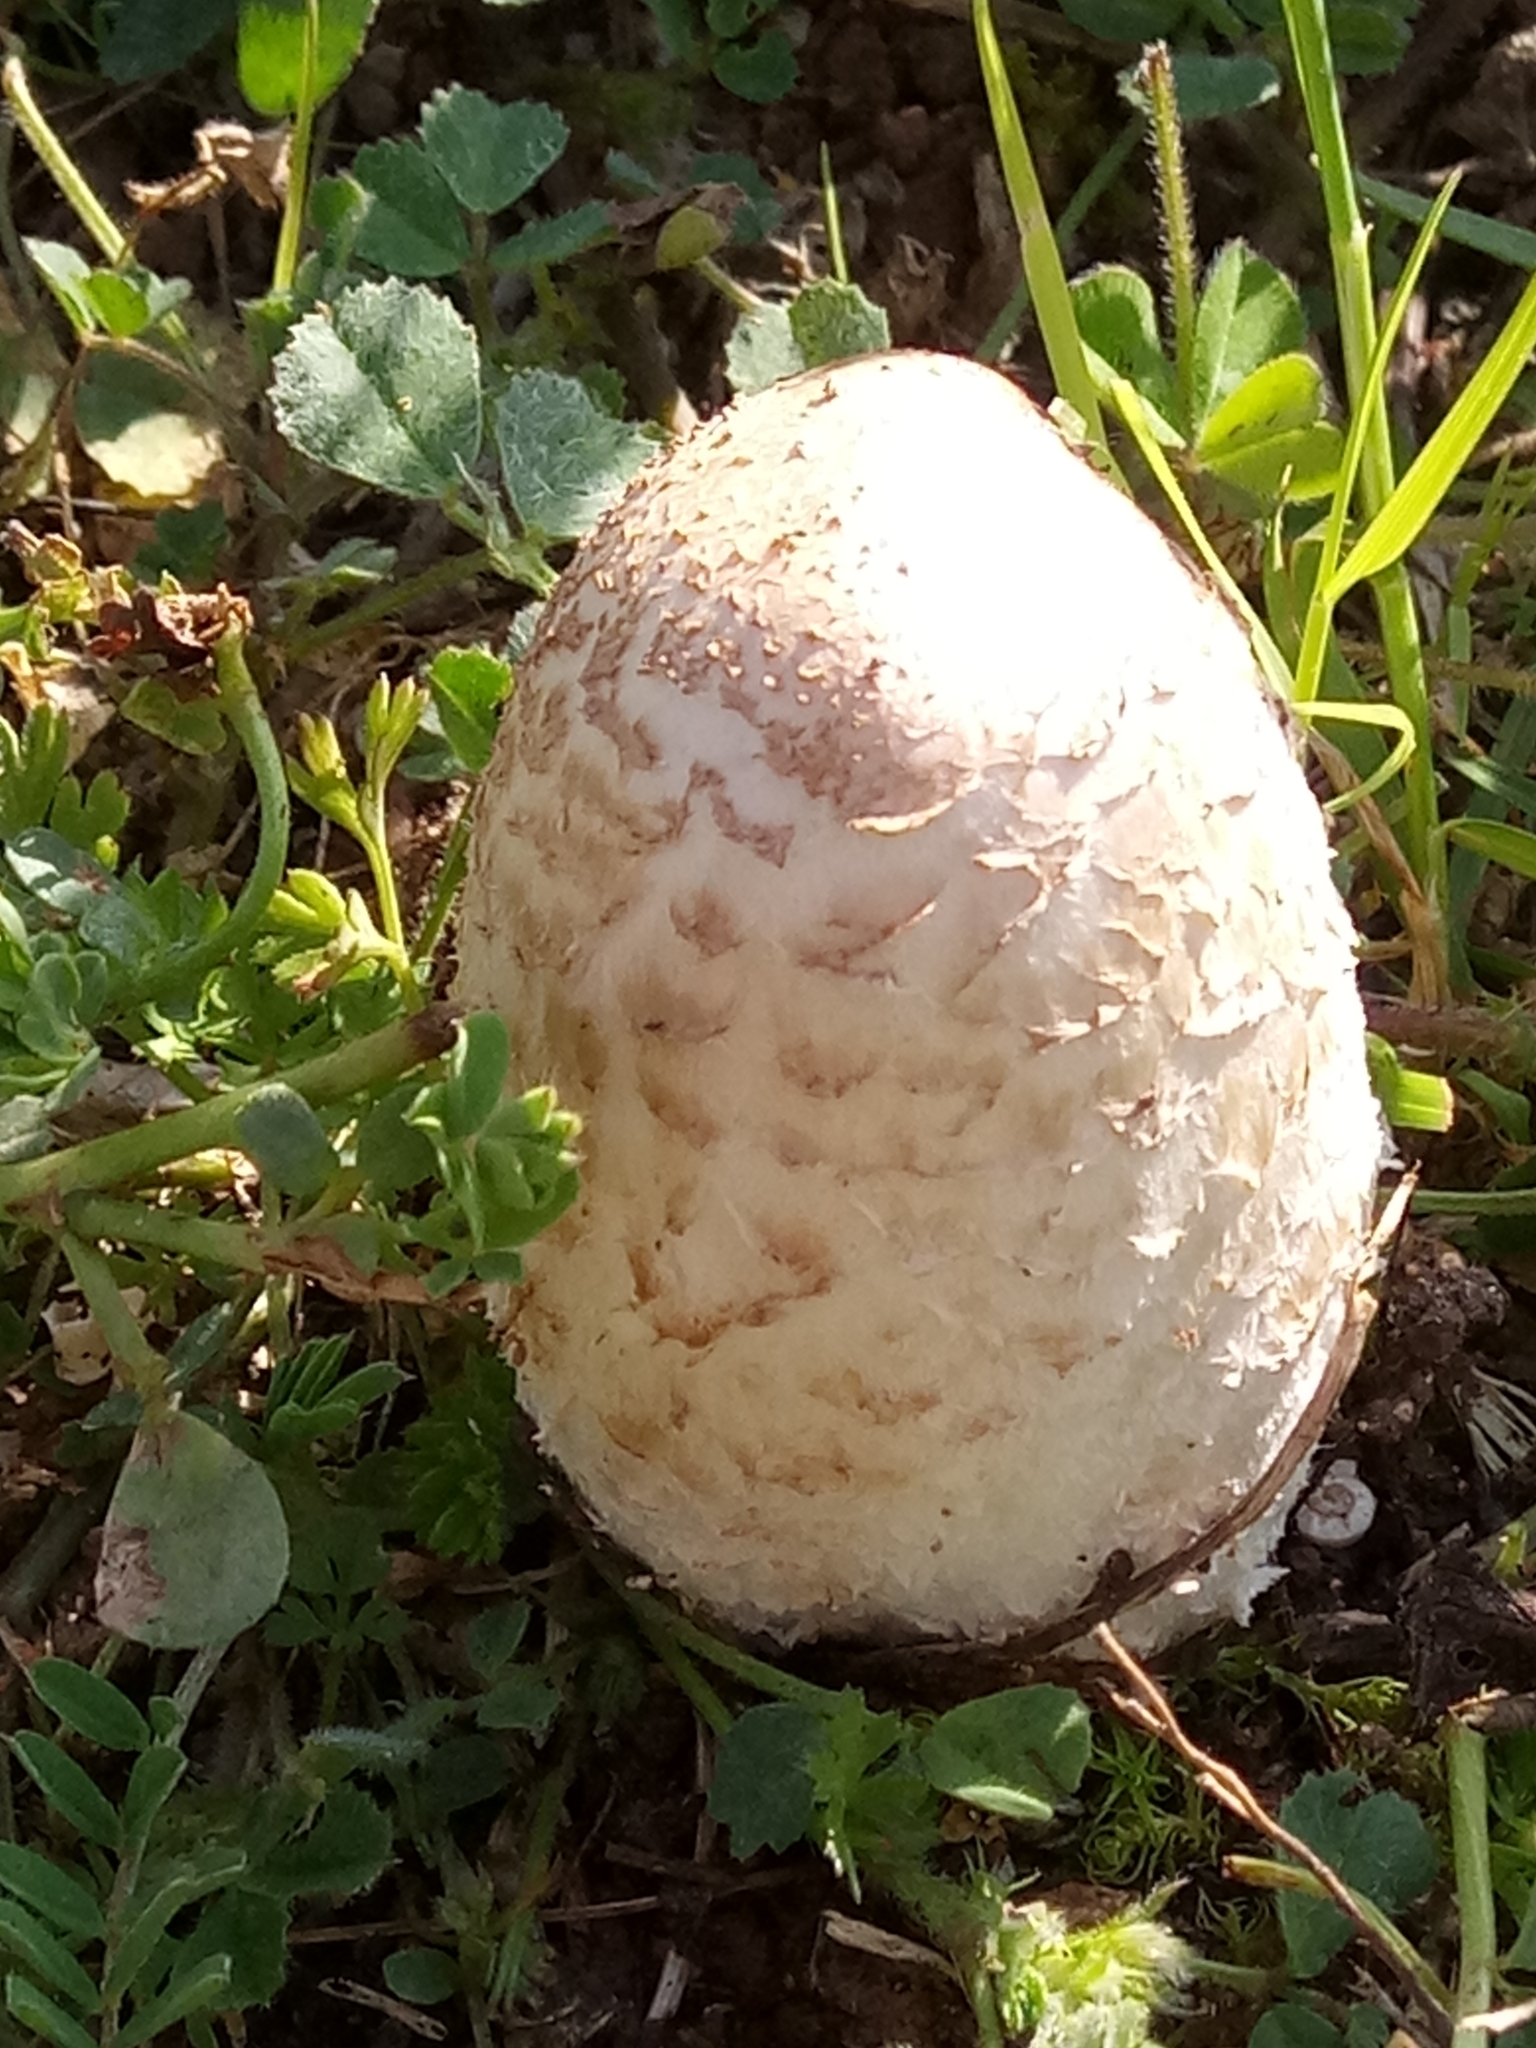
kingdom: Fungi
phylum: Basidiomycota
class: Agaricomycetes
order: Agaricales
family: Agaricaceae
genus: Coprinus
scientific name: Coprinus comatus
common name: Lawyer's wig
